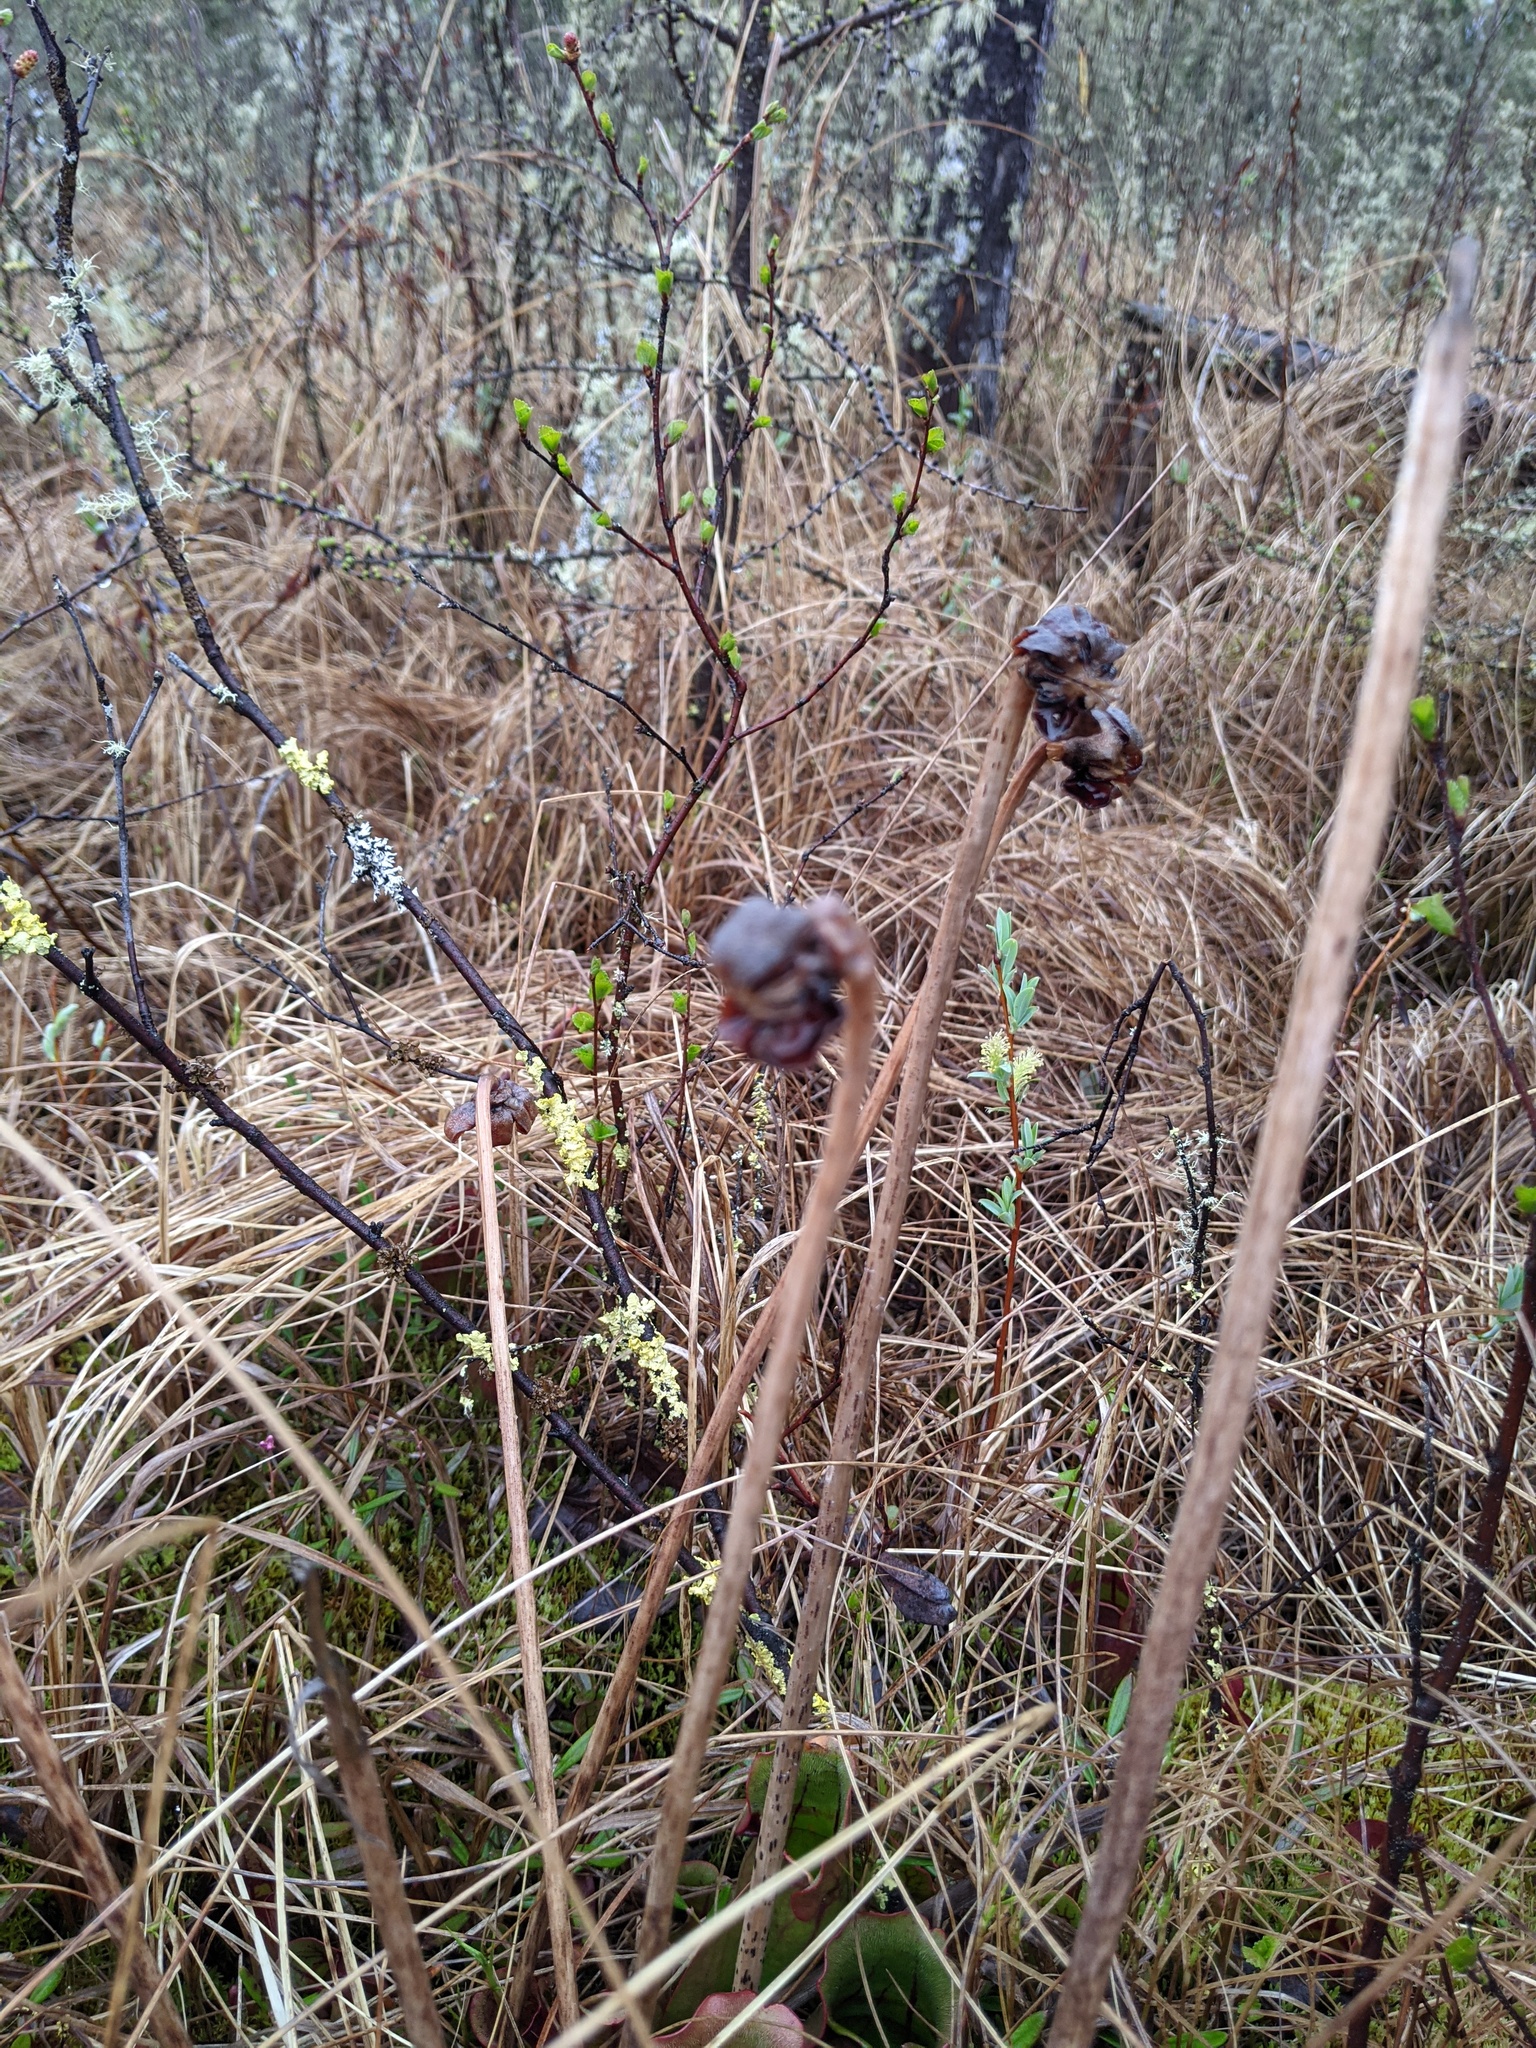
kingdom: Plantae
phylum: Tracheophyta
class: Magnoliopsida
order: Ericales
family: Sarraceniaceae
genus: Sarracenia
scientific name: Sarracenia purpurea
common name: Pitcherplant
